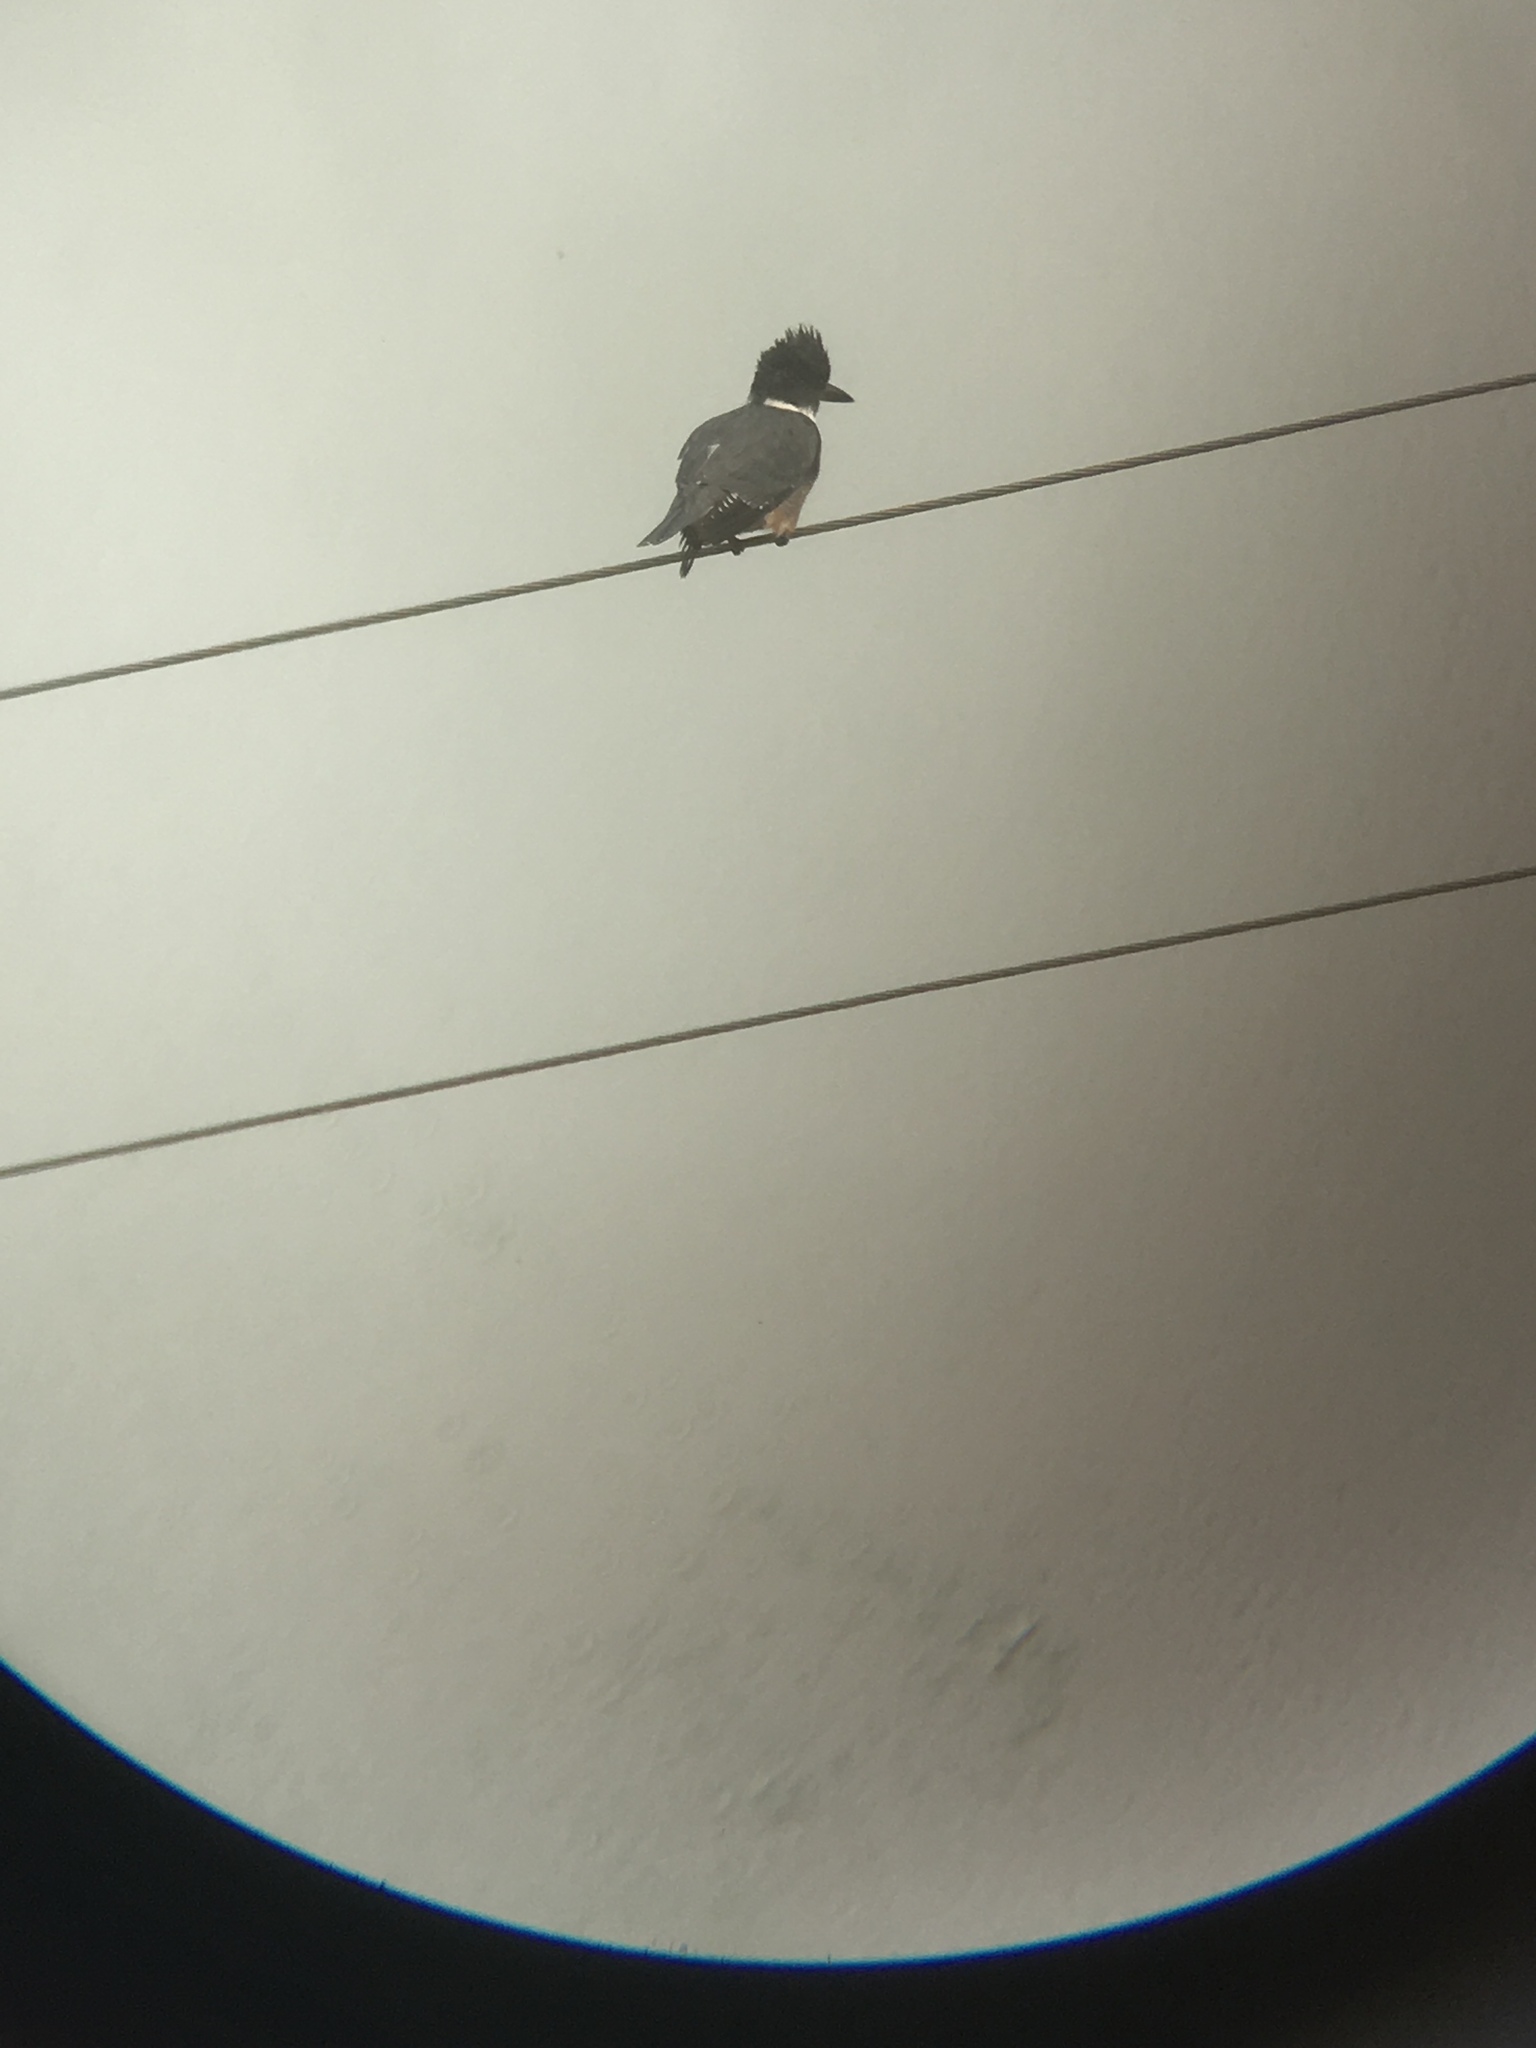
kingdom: Animalia
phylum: Chordata
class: Aves
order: Coraciiformes
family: Alcedinidae
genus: Megaceryle
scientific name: Megaceryle alcyon
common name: Belted kingfisher
